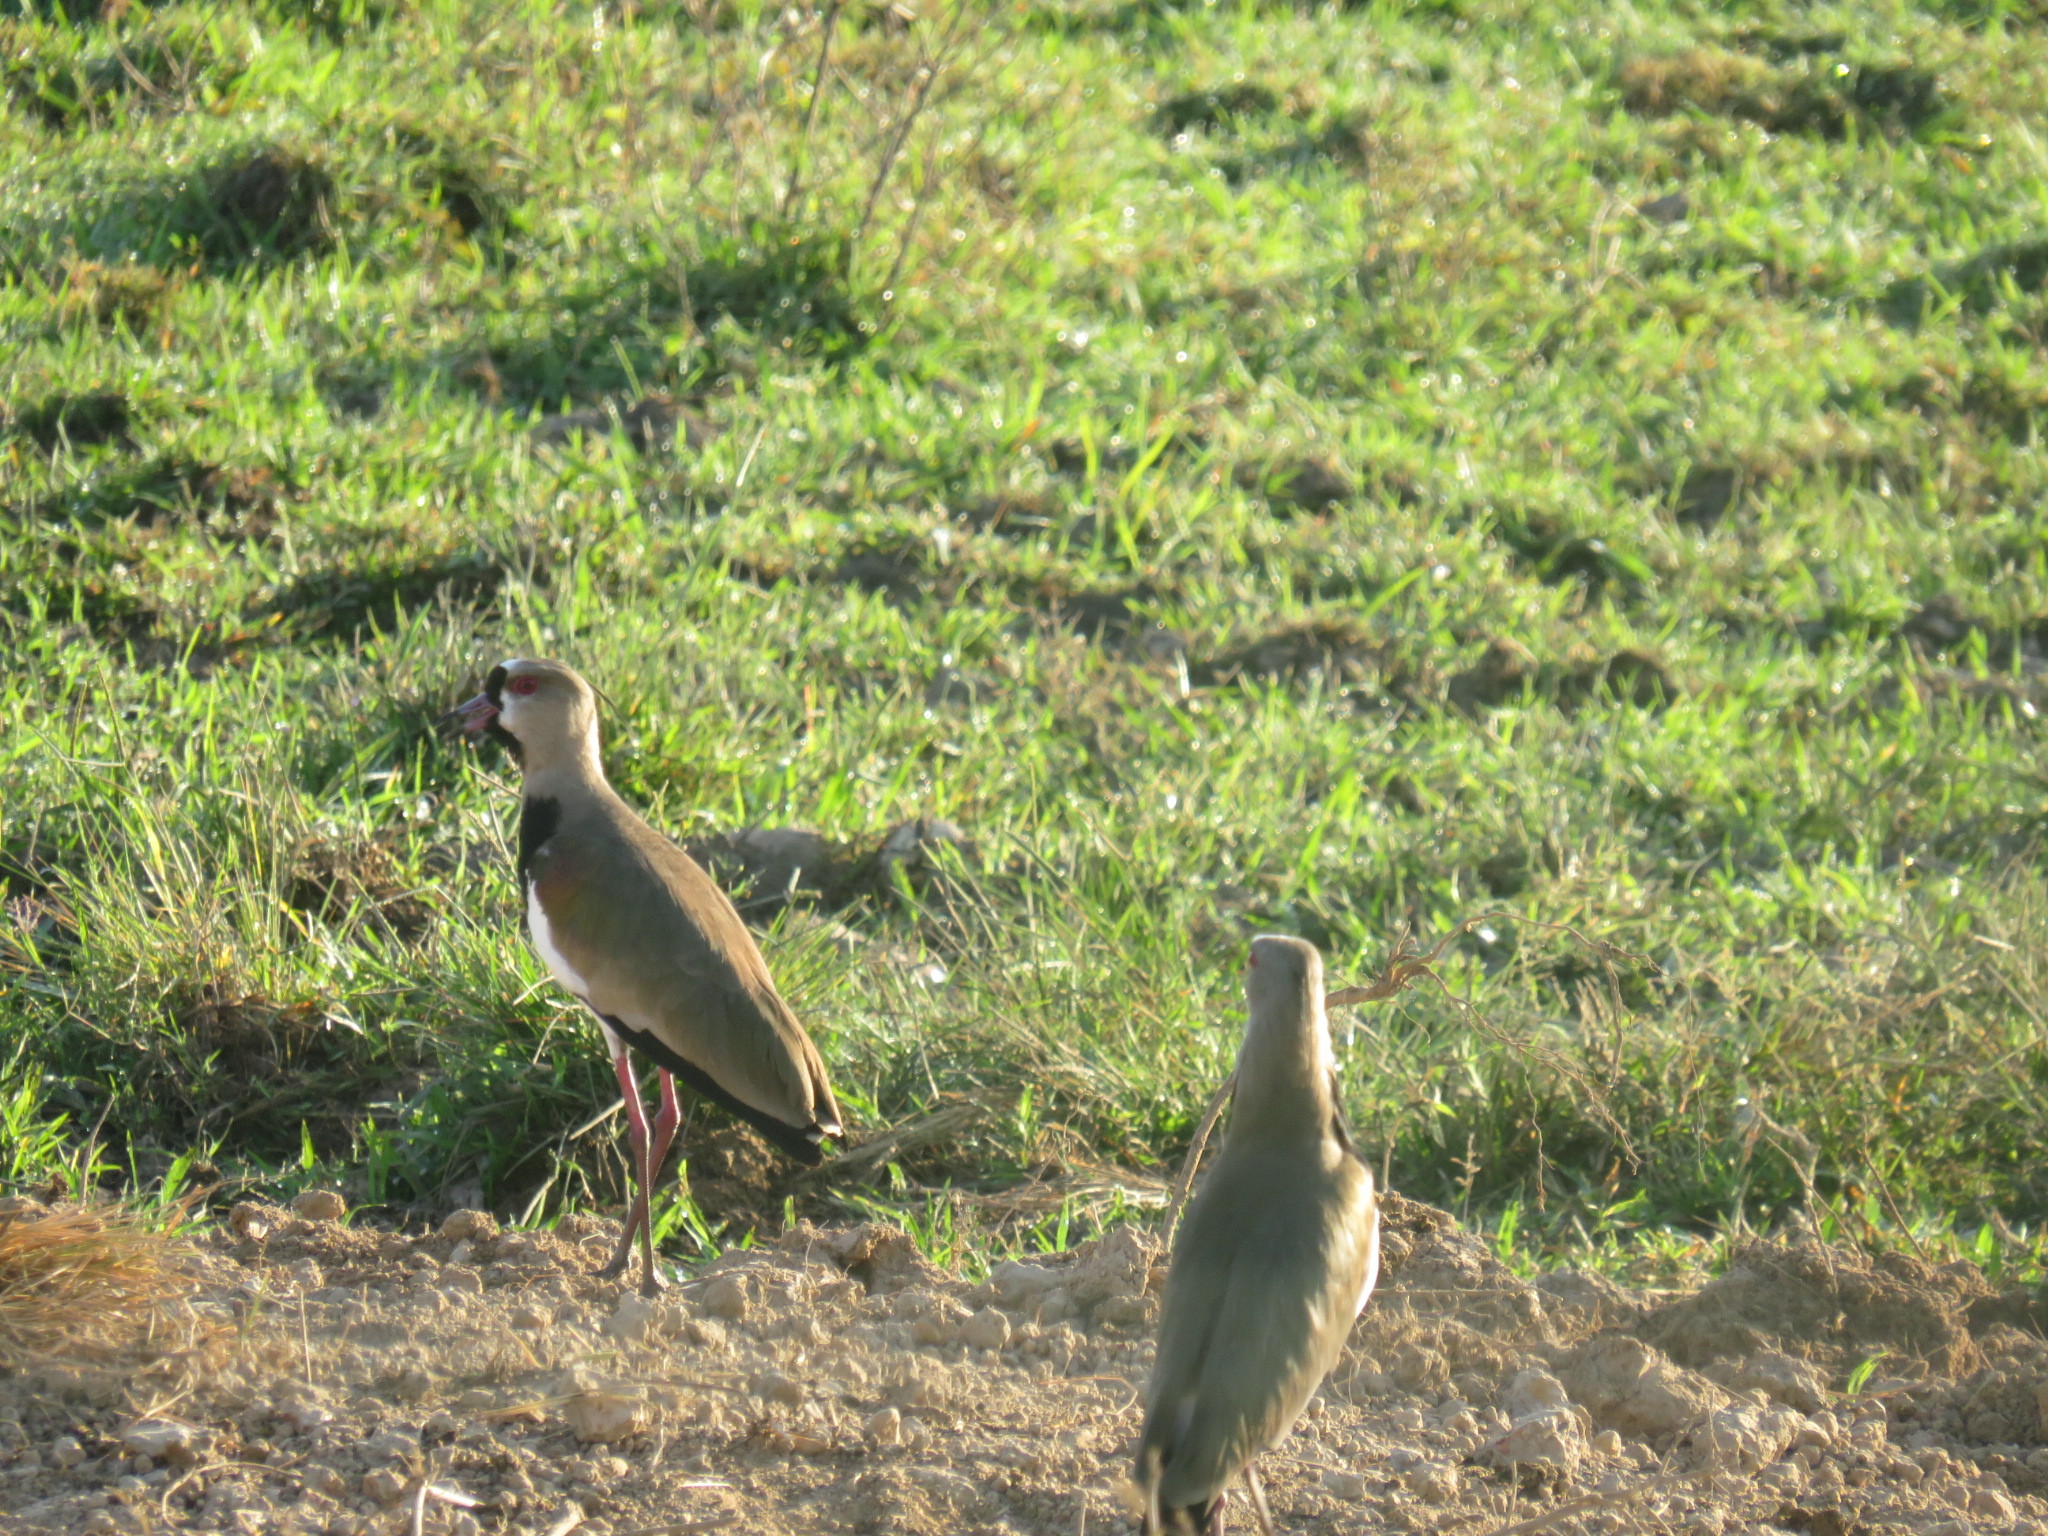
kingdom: Animalia
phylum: Chordata
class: Aves
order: Charadriiformes
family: Charadriidae
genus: Vanellus
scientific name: Vanellus chilensis
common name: Southern lapwing
